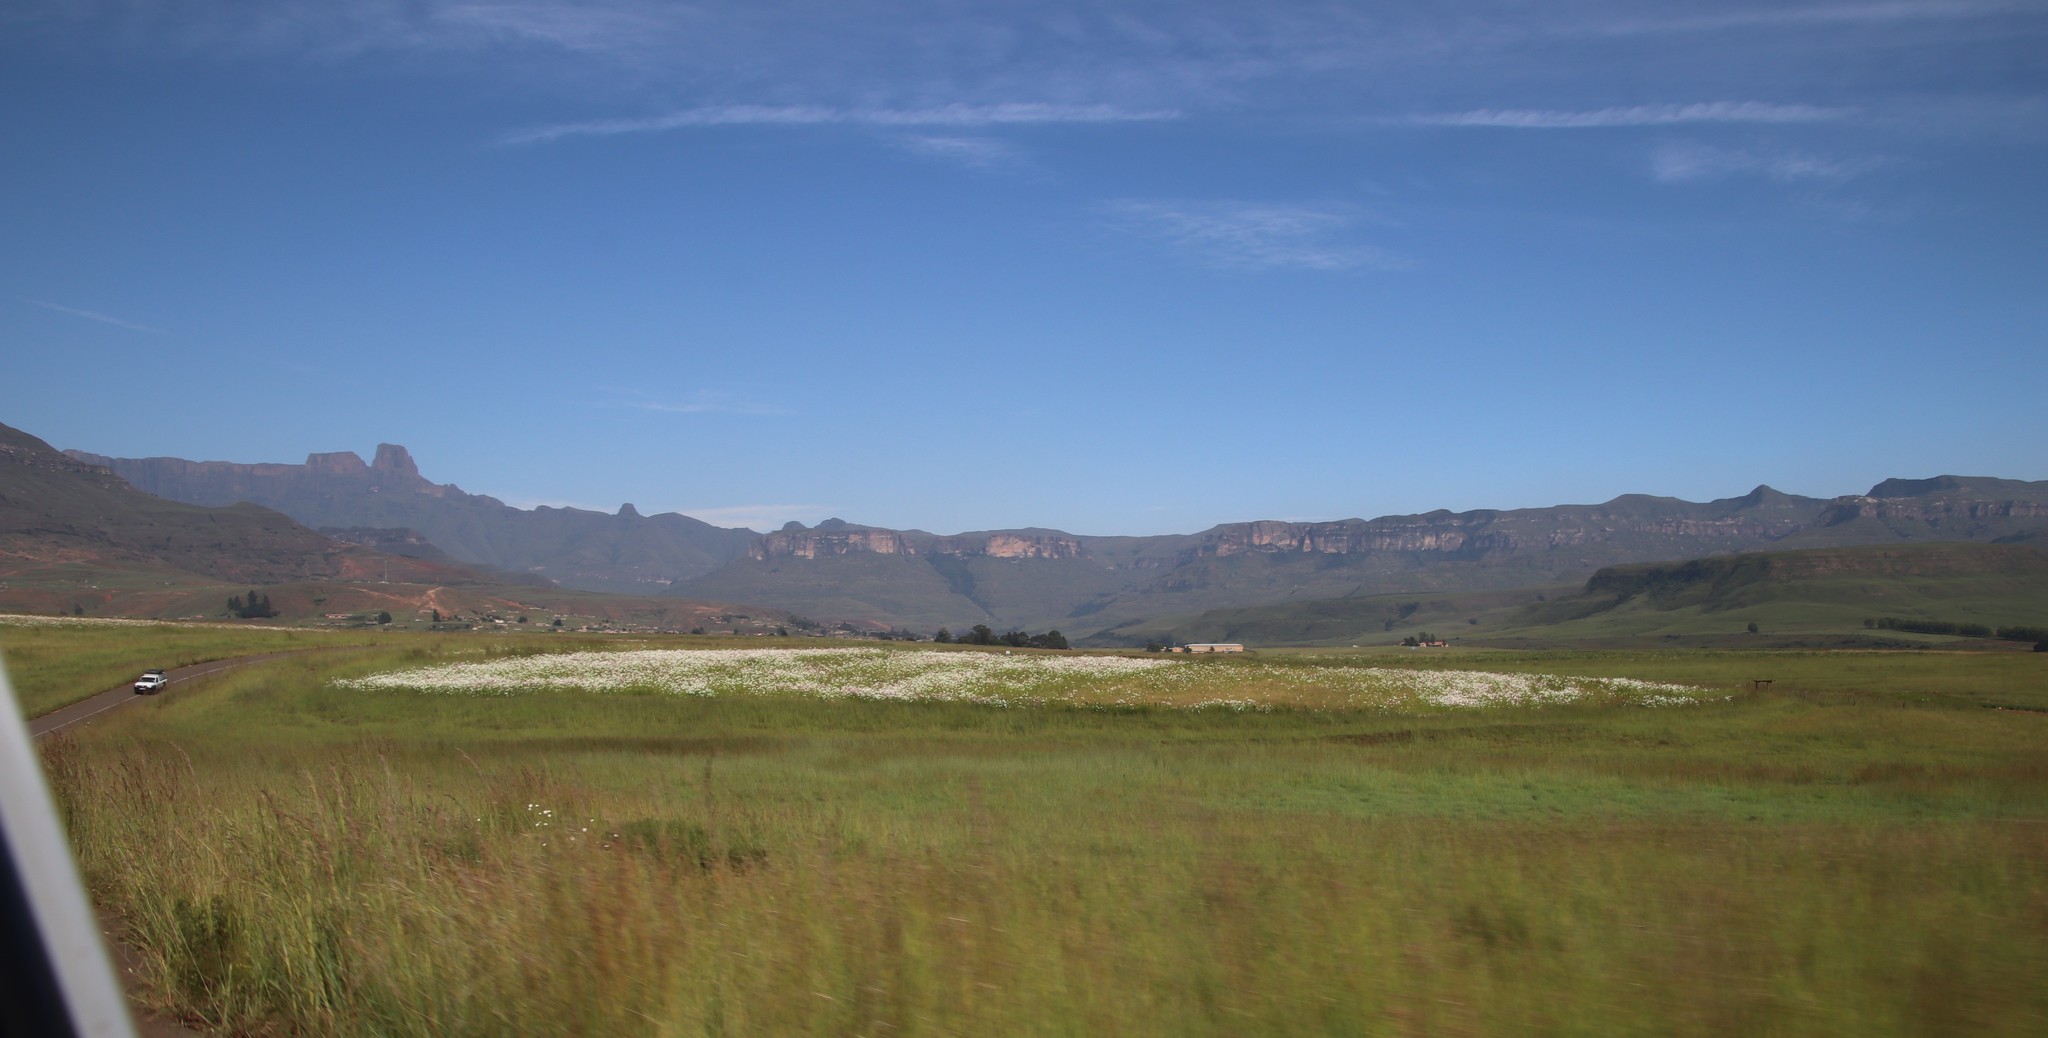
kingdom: Plantae
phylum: Tracheophyta
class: Magnoliopsida
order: Asterales
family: Asteraceae
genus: Cosmos
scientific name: Cosmos bipinnatus
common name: Garden cosmos
